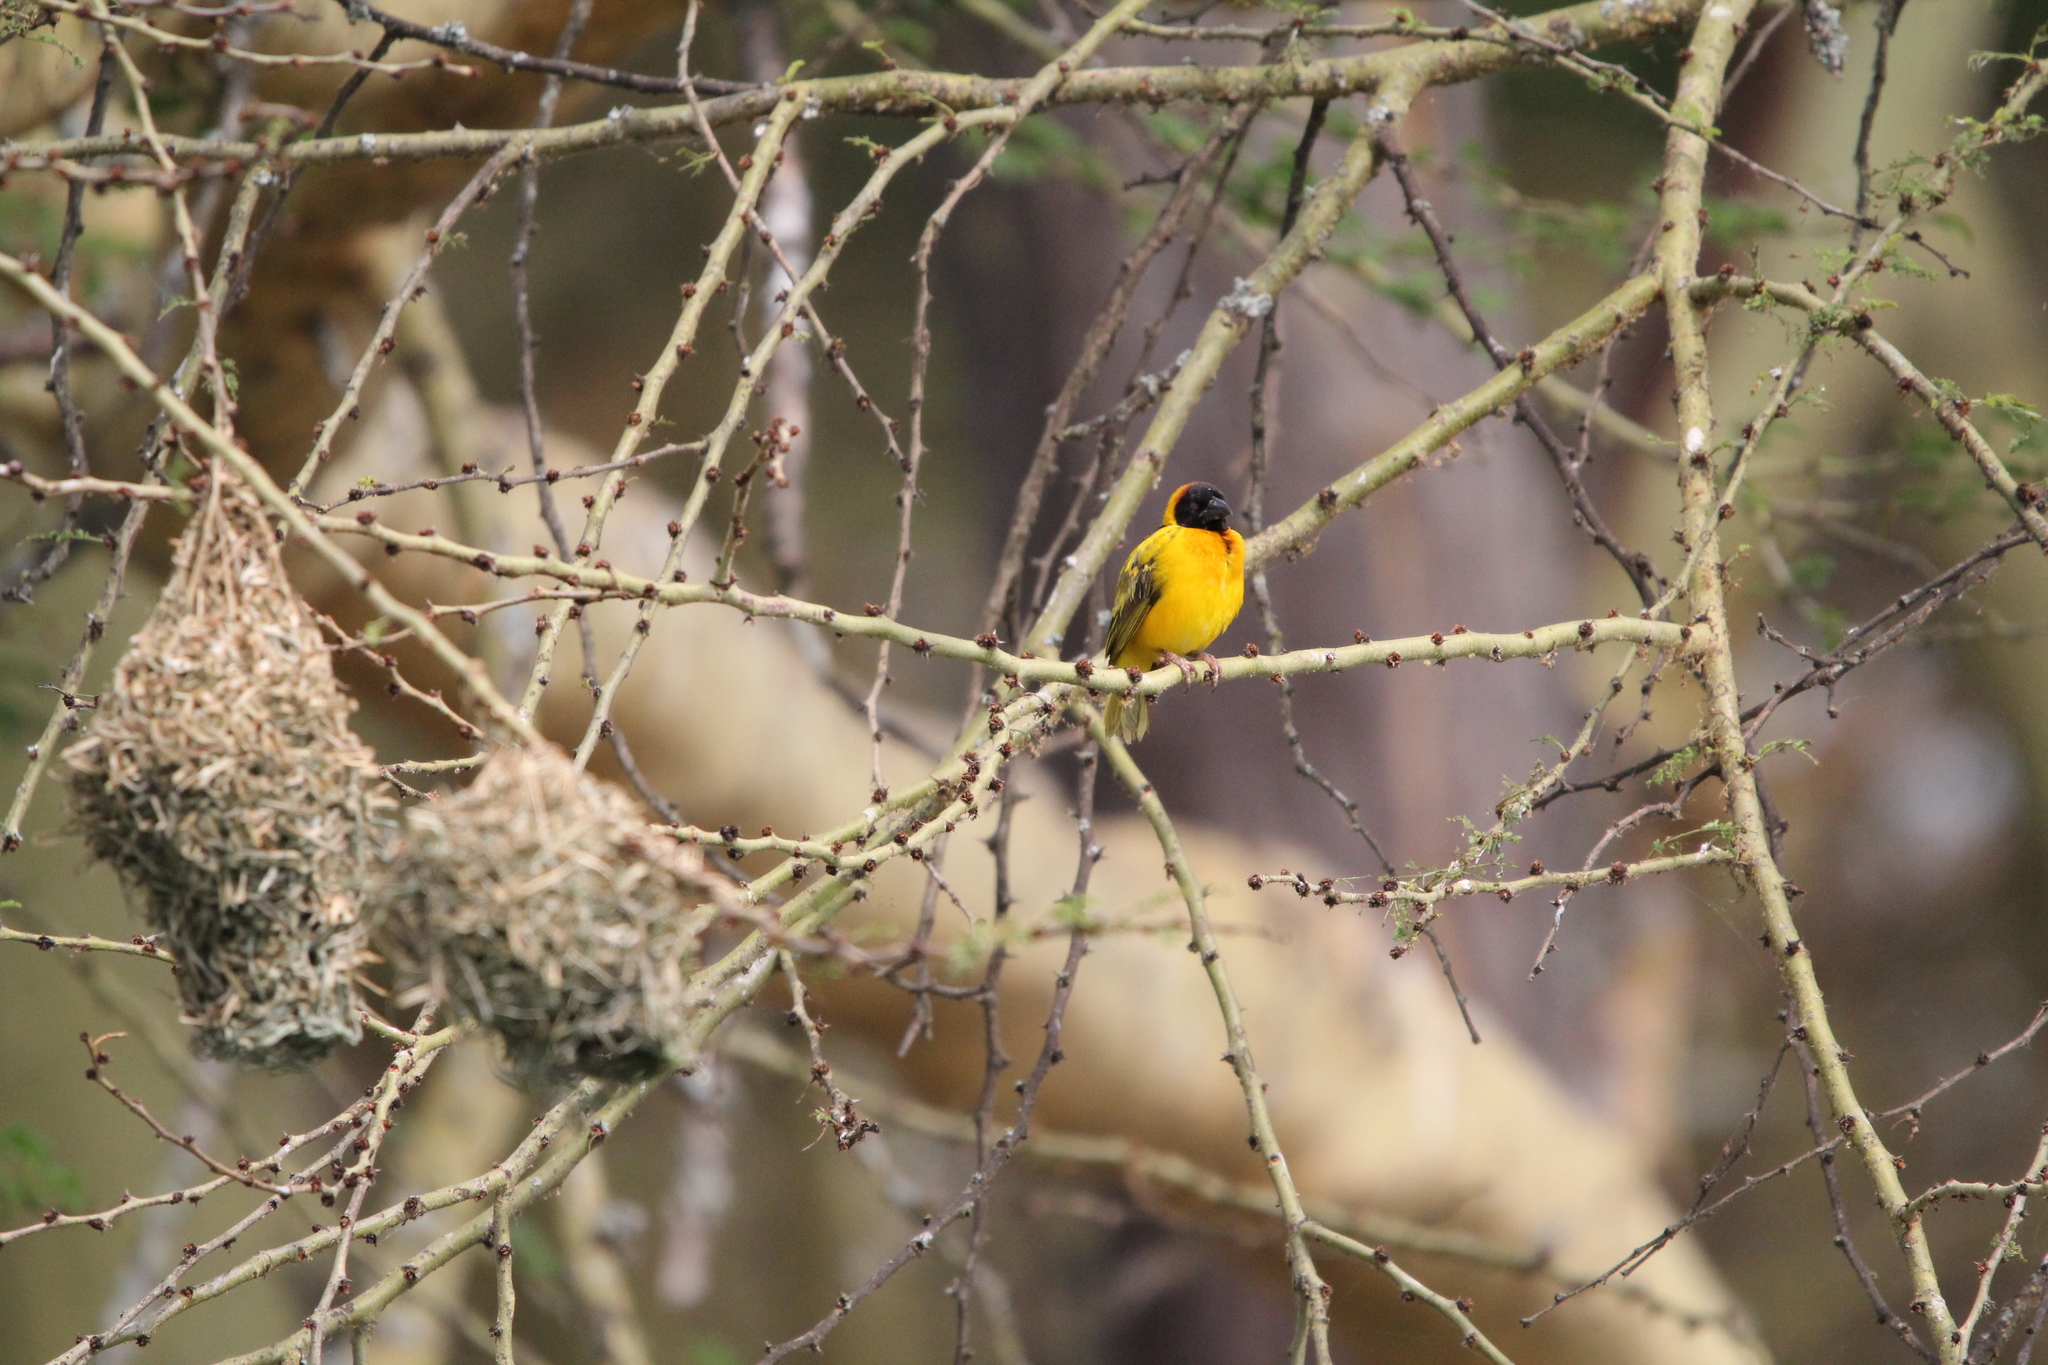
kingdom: Animalia
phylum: Chordata
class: Aves
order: Passeriformes
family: Ploceidae
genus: Ploceus
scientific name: Ploceus cucullatus
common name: Village weaver
